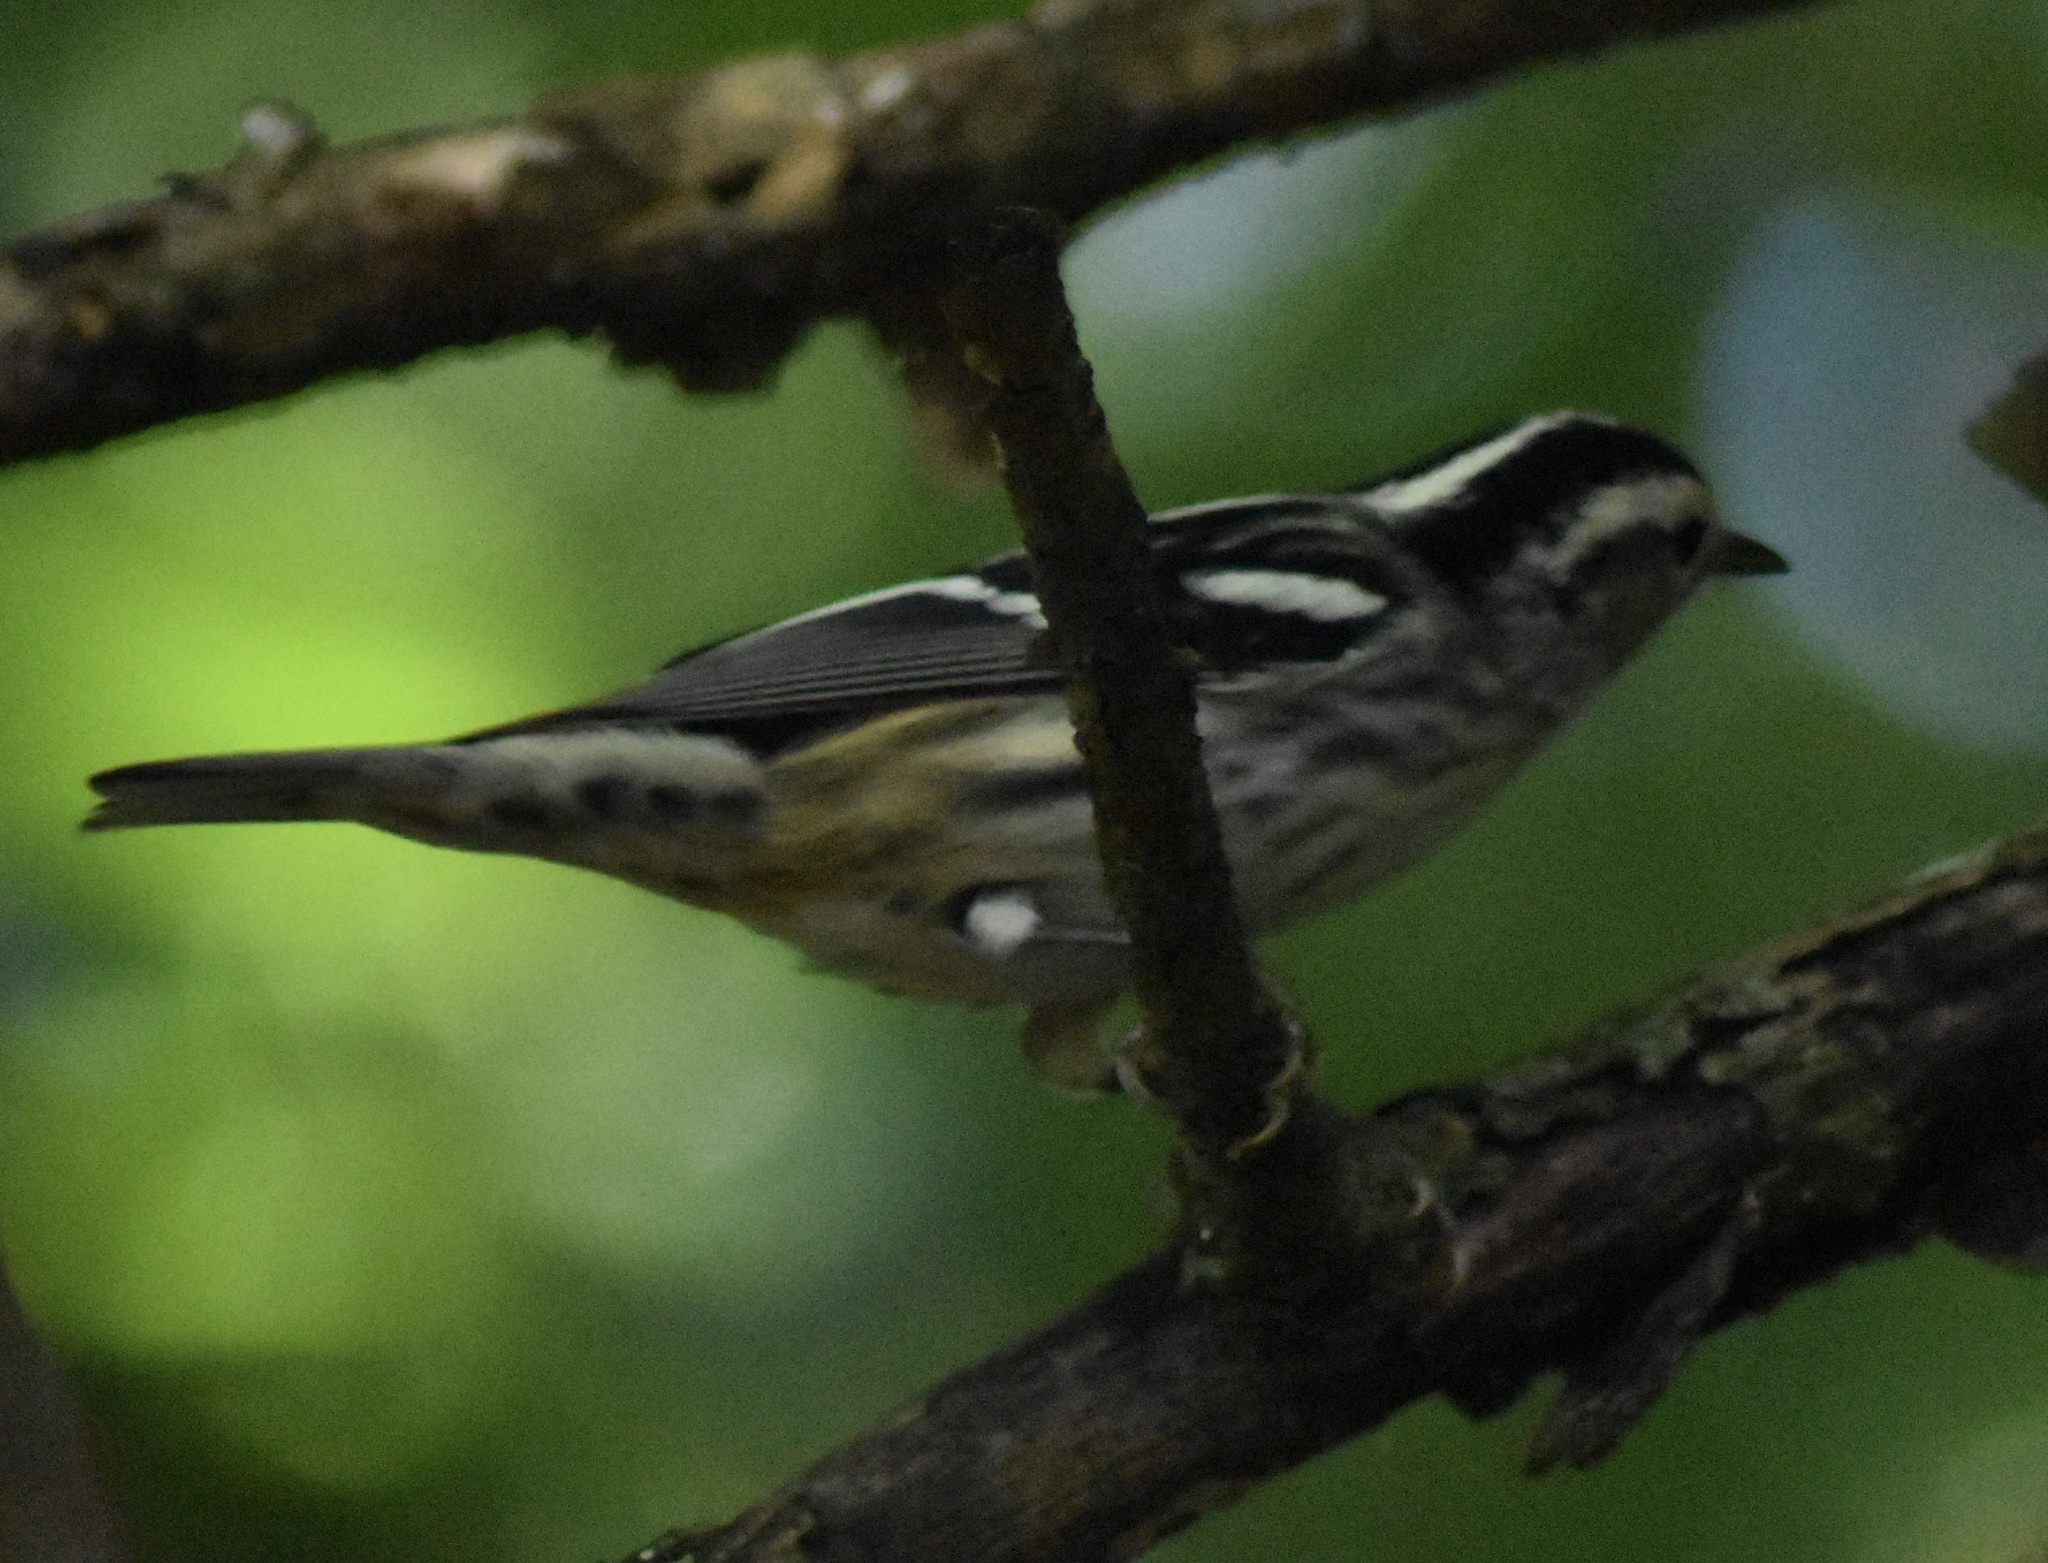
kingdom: Animalia
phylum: Chordata
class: Aves
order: Passeriformes
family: Parulidae
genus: Mniotilta
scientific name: Mniotilta varia
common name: Black-and-white warbler
